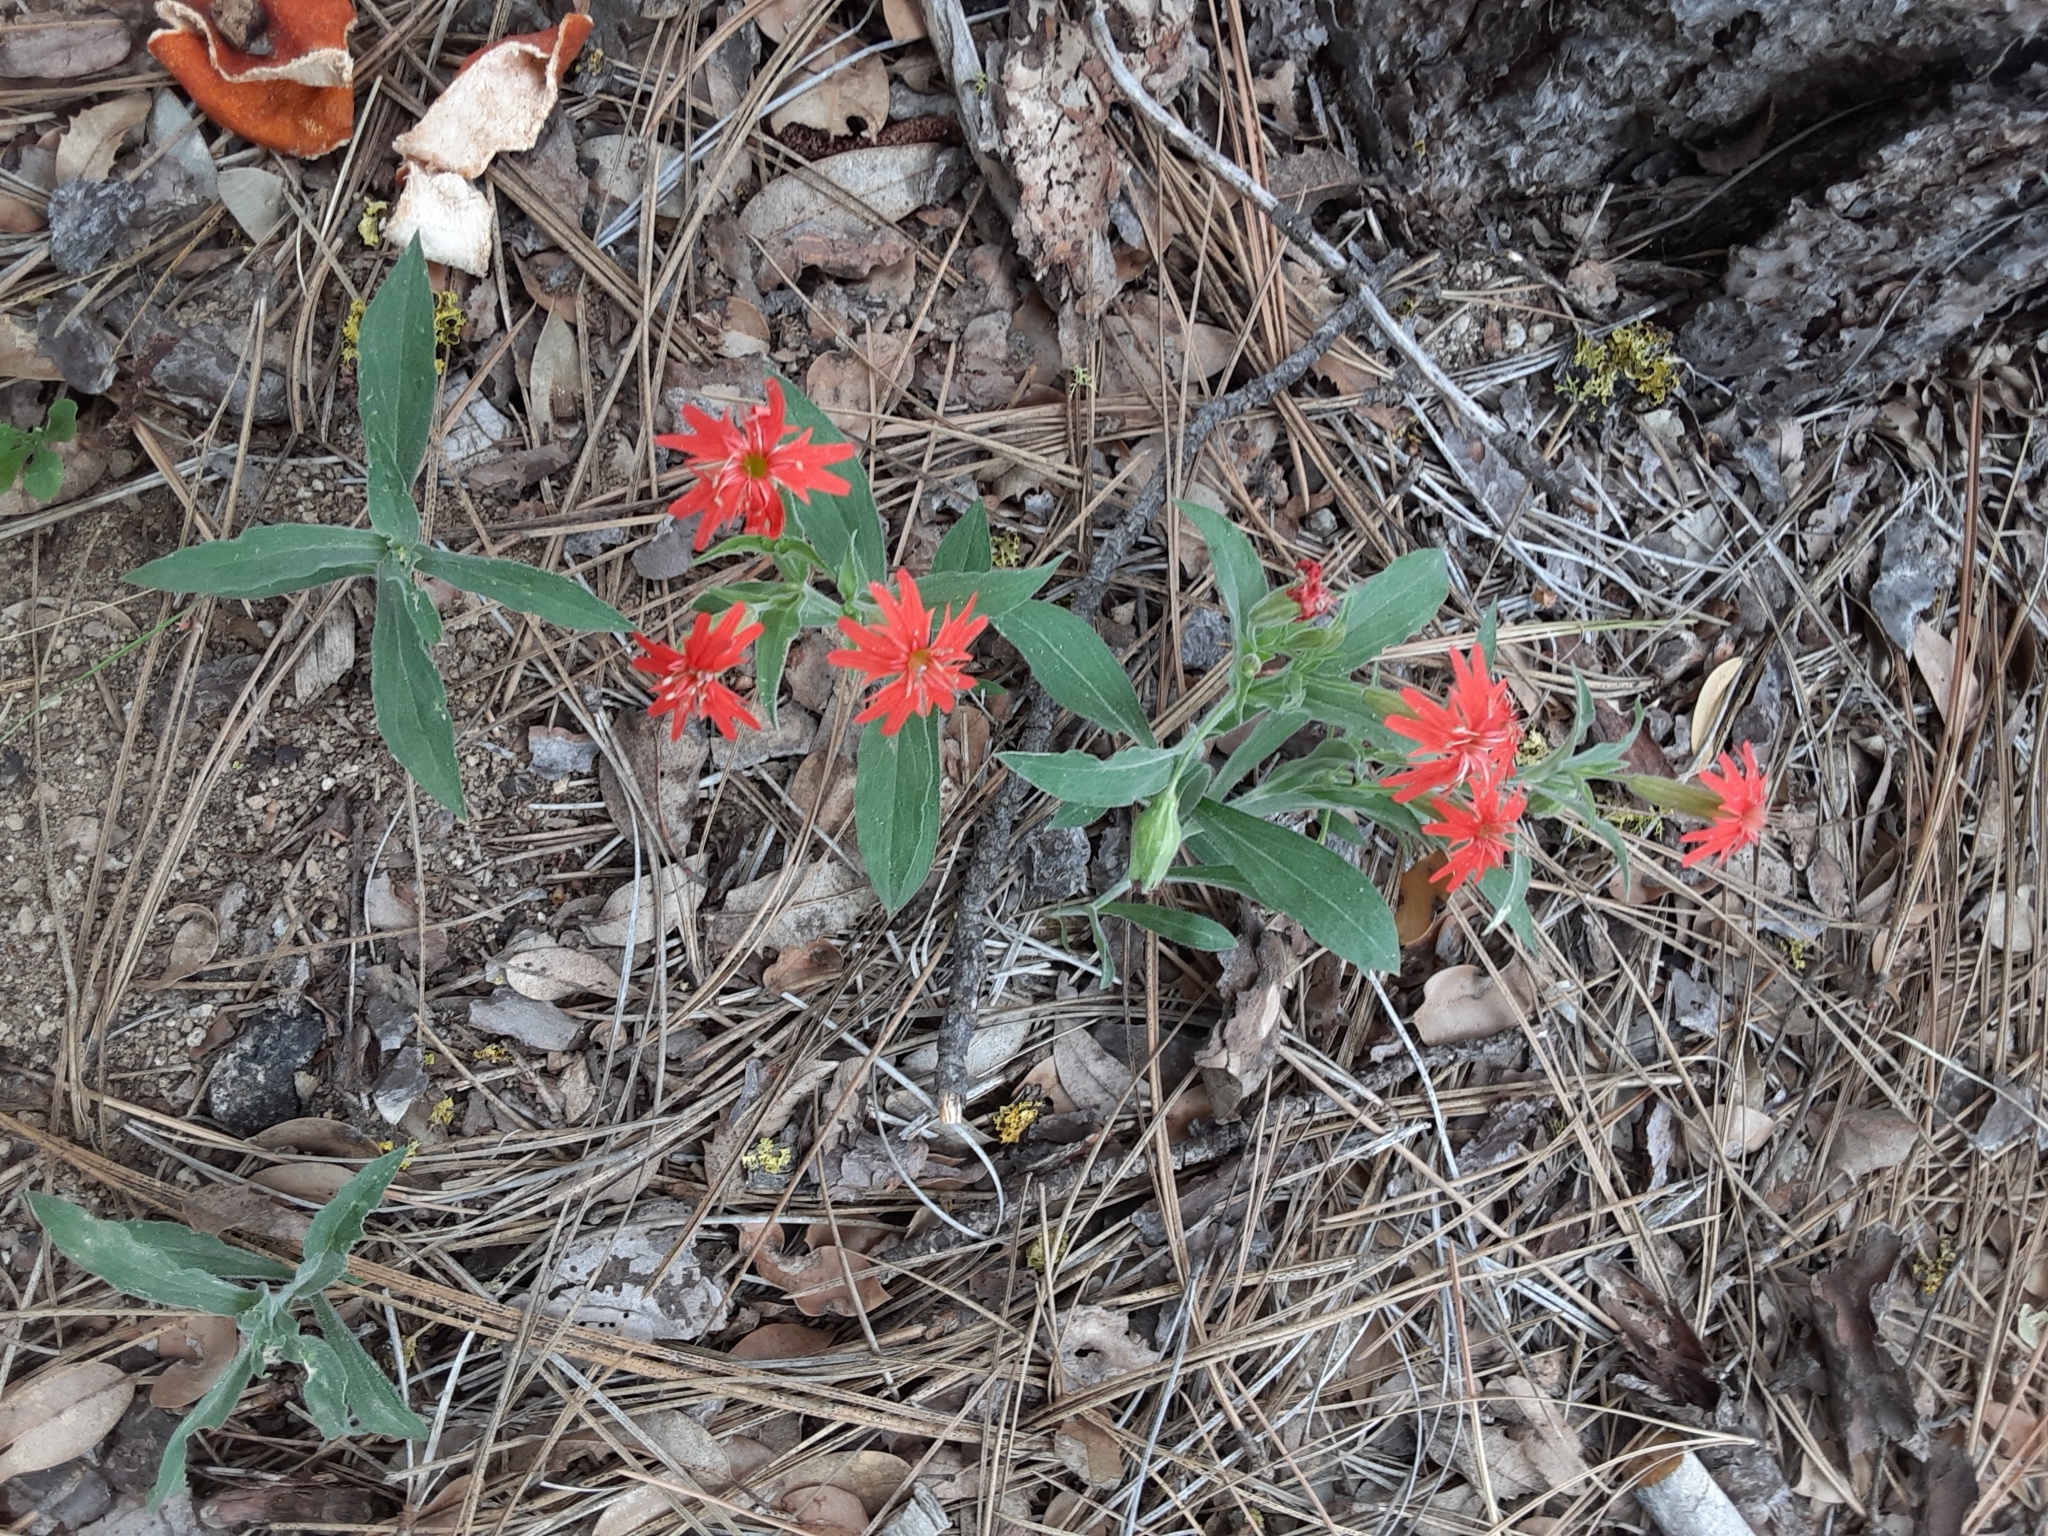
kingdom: Plantae
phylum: Tracheophyta
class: Magnoliopsida
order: Caryophyllales
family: Caryophyllaceae
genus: Silene
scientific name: Silene laciniata
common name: Indian-pink
